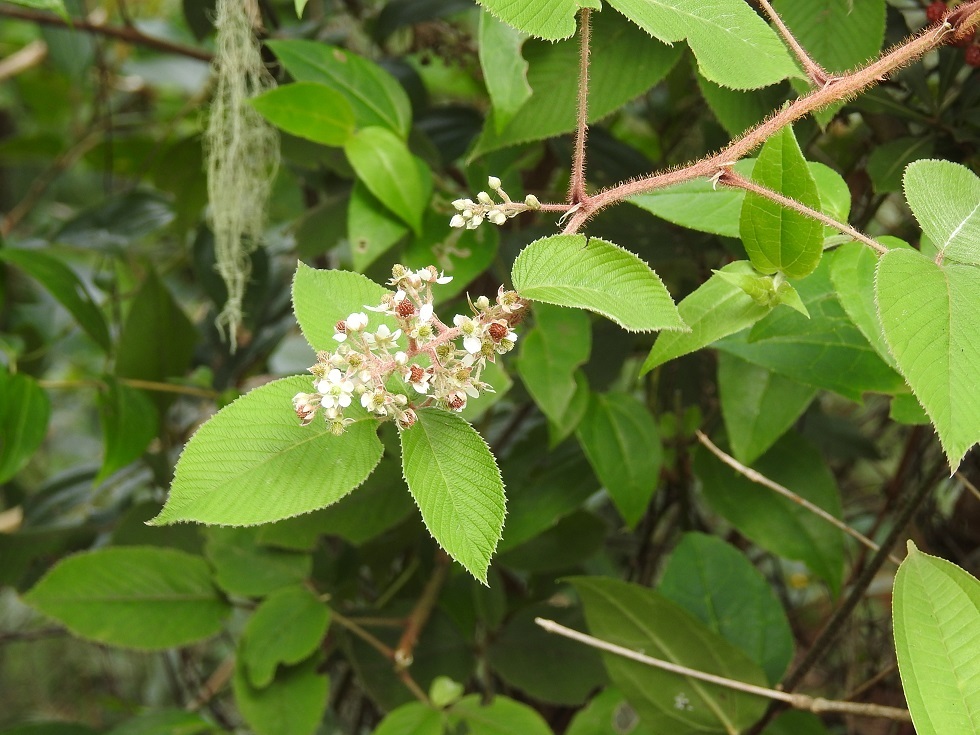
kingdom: Plantae
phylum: Tracheophyta
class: Magnoliopsida
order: Rosales
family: Rosaceae
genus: Rubus
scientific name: Rubus coriifolius
